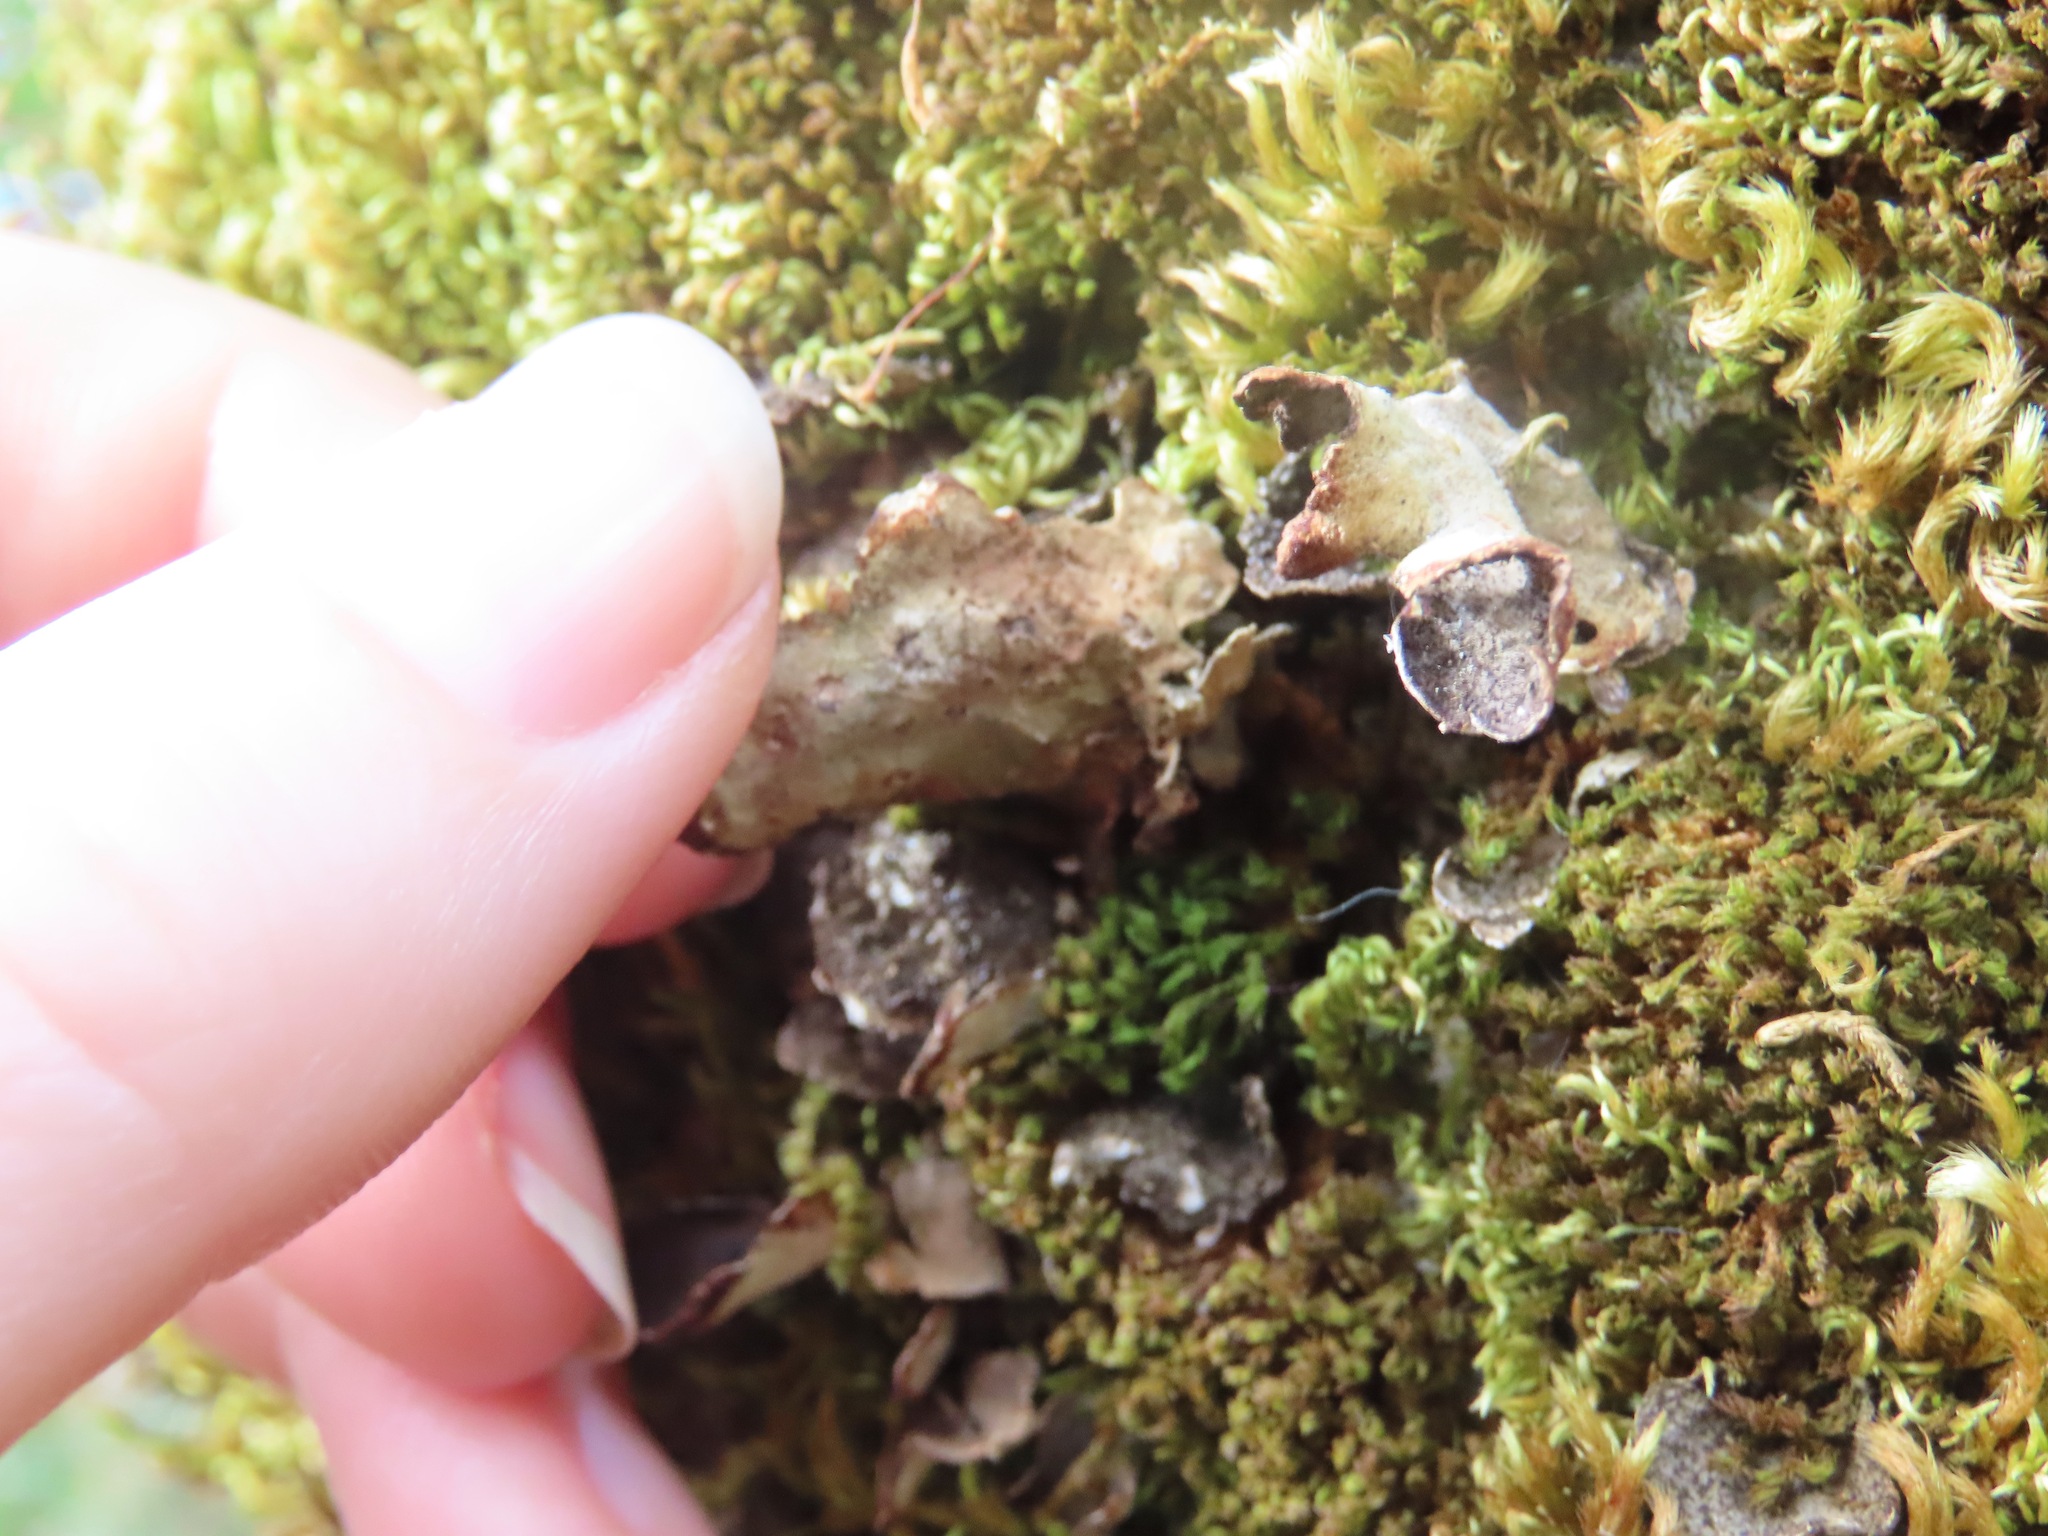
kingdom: Fungi
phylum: Ascomycota
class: Lecanoromycetes
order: Peltigerales
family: Lobariaceae
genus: Sticta
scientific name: Sticta
